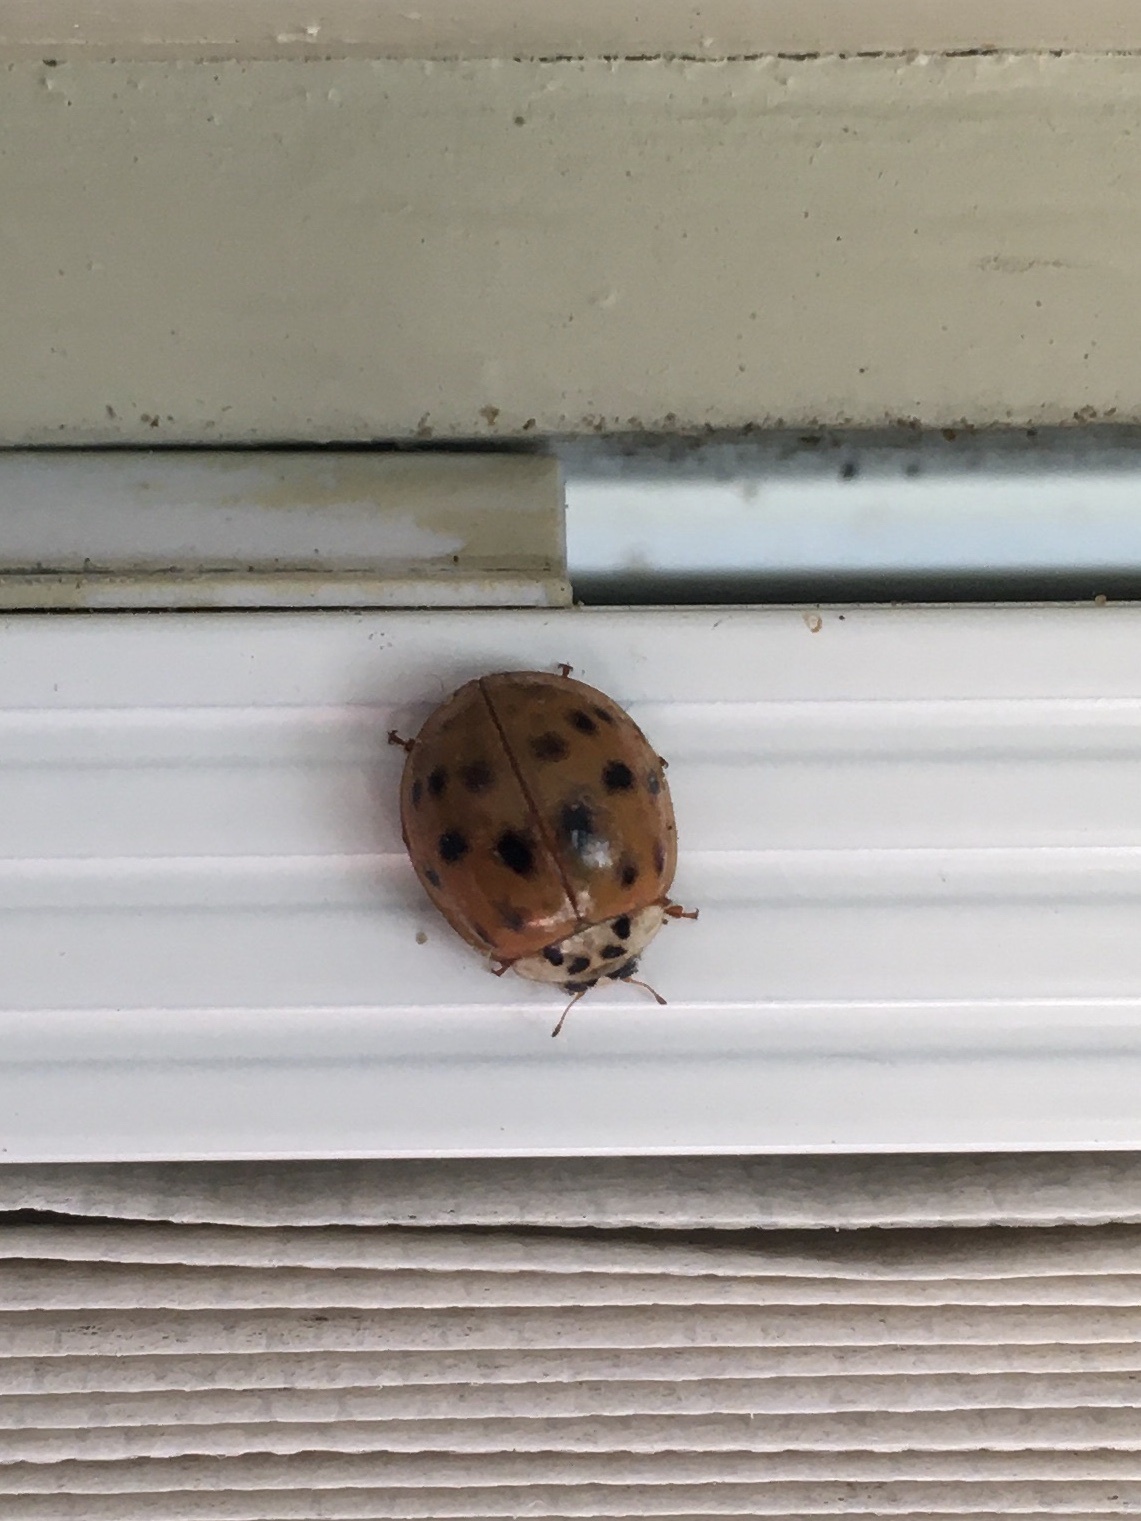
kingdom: Animalia
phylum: Arthropoda
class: Insecta
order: Coleoptera
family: Coccinellidae
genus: Harmonia
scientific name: Harmonia axyridis
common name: Harlequin ladybird
